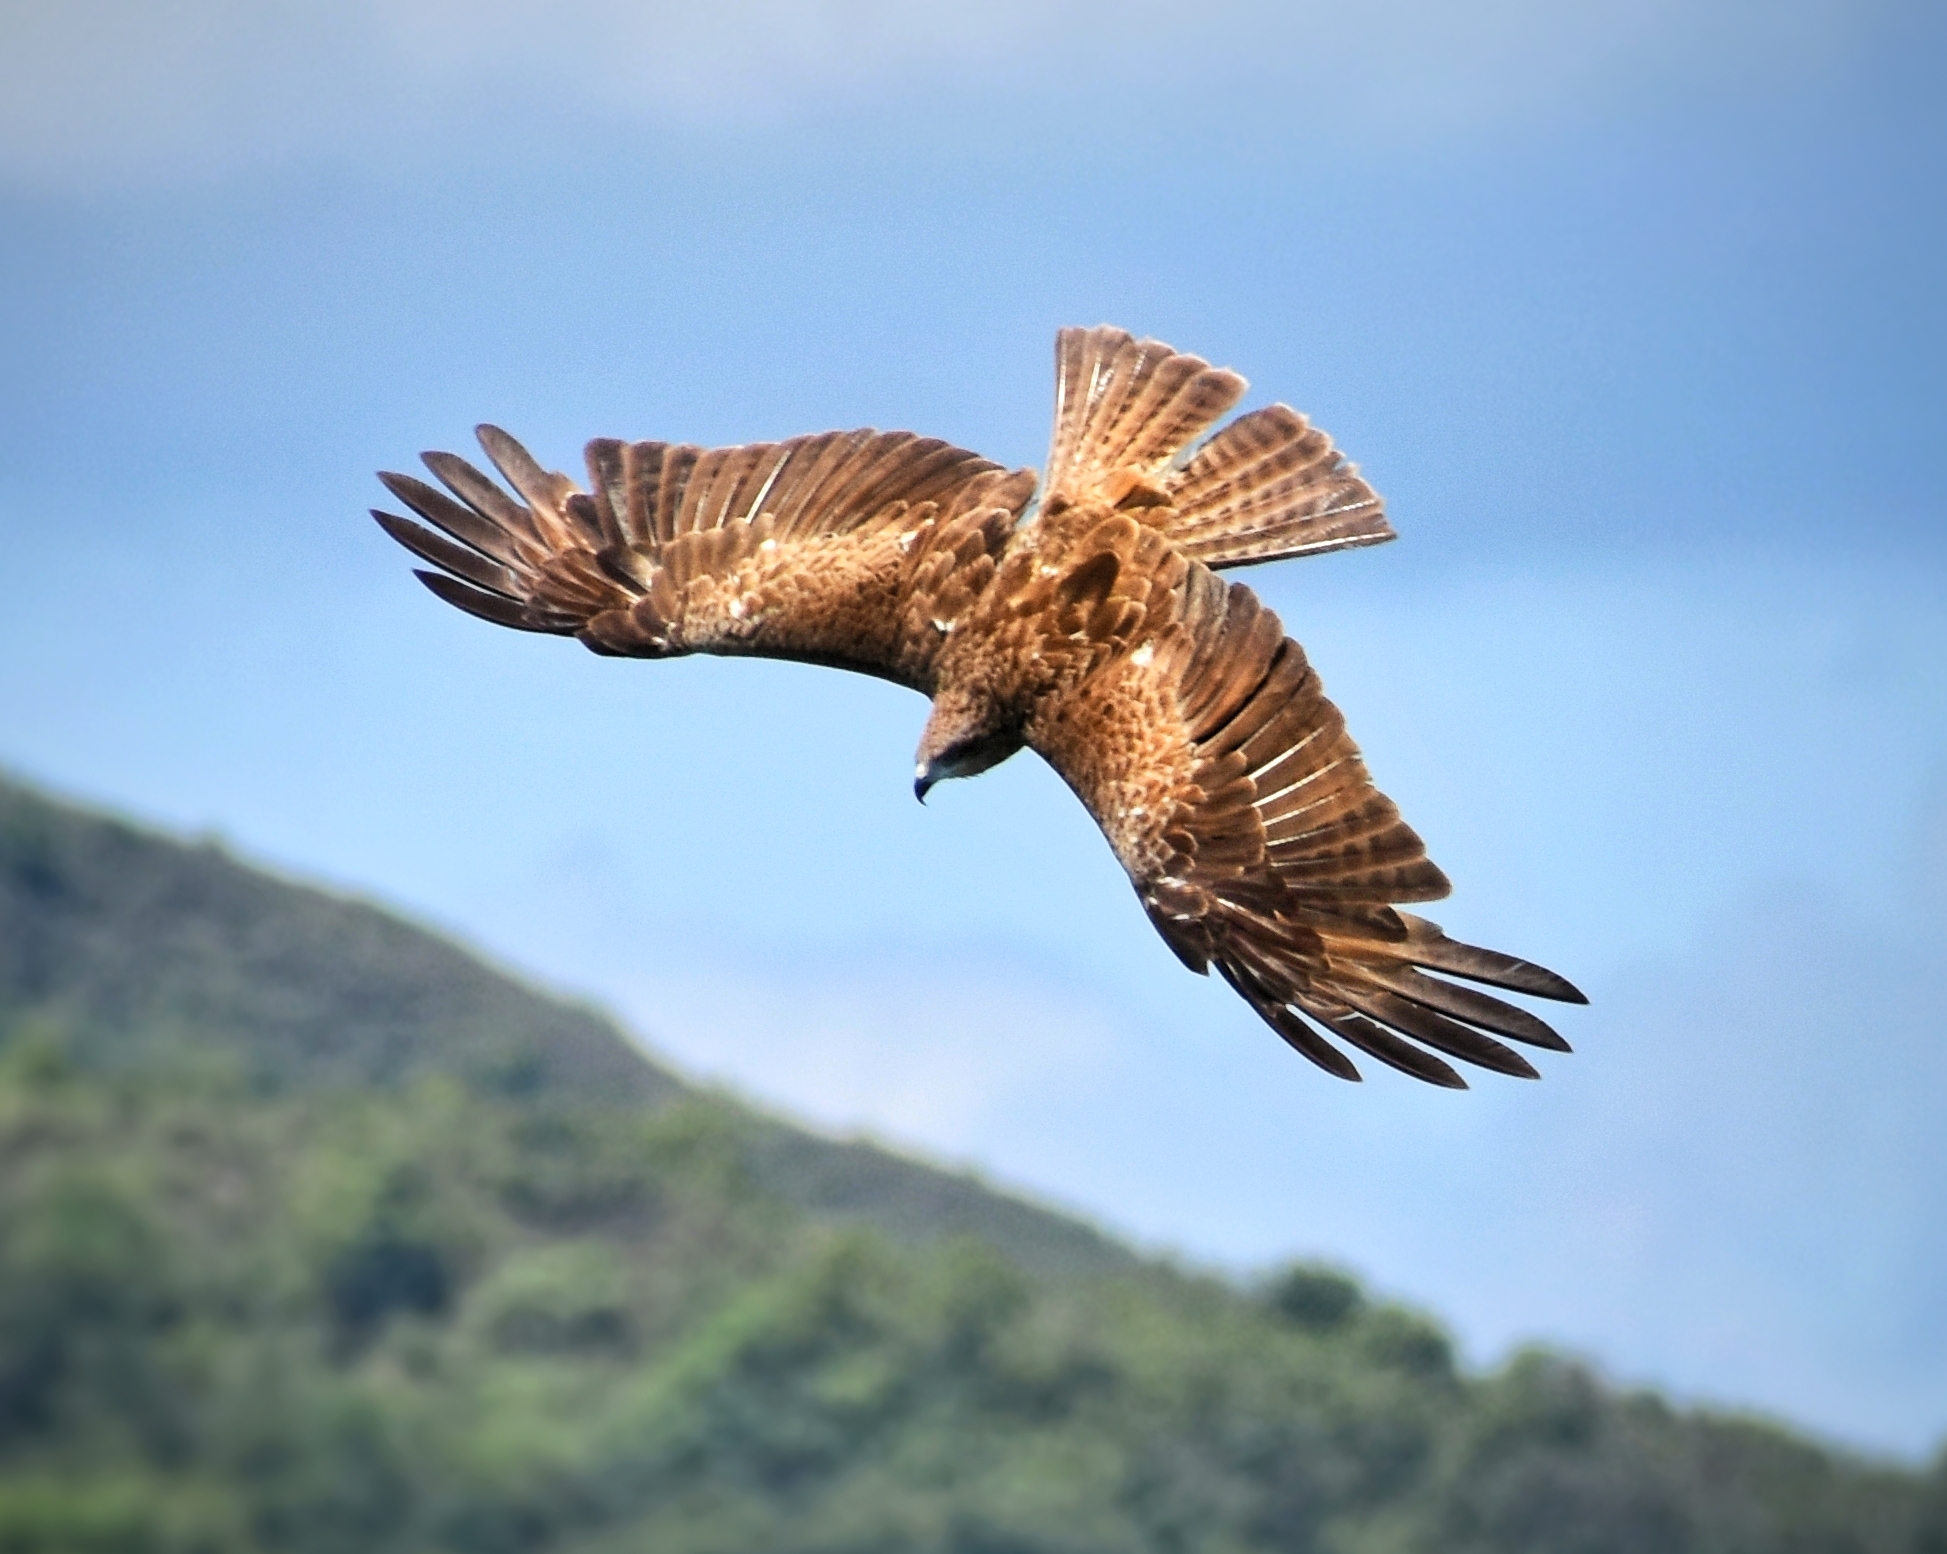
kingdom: Animalia
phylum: Chordata
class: Aves
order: Accipitriformes
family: Accipitridae
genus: Milvus
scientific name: Milvus migrans
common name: Black kite
